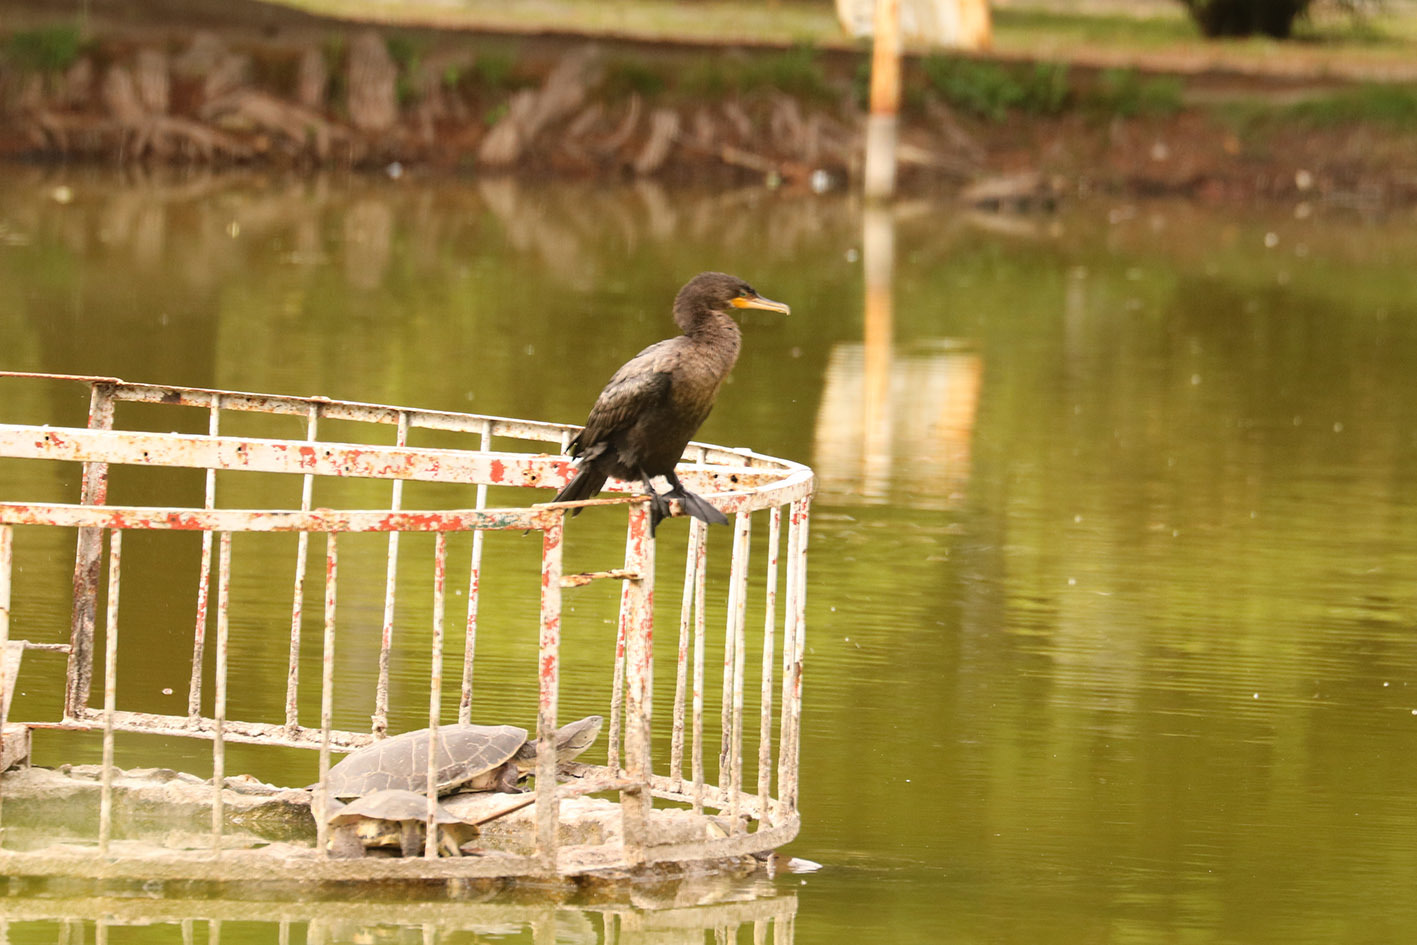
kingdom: Animalia
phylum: Chordata
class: Testudines
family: Chelidae
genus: Phrynops
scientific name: Phrynops hilarii
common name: Side-necked turtle of saint hillaire
